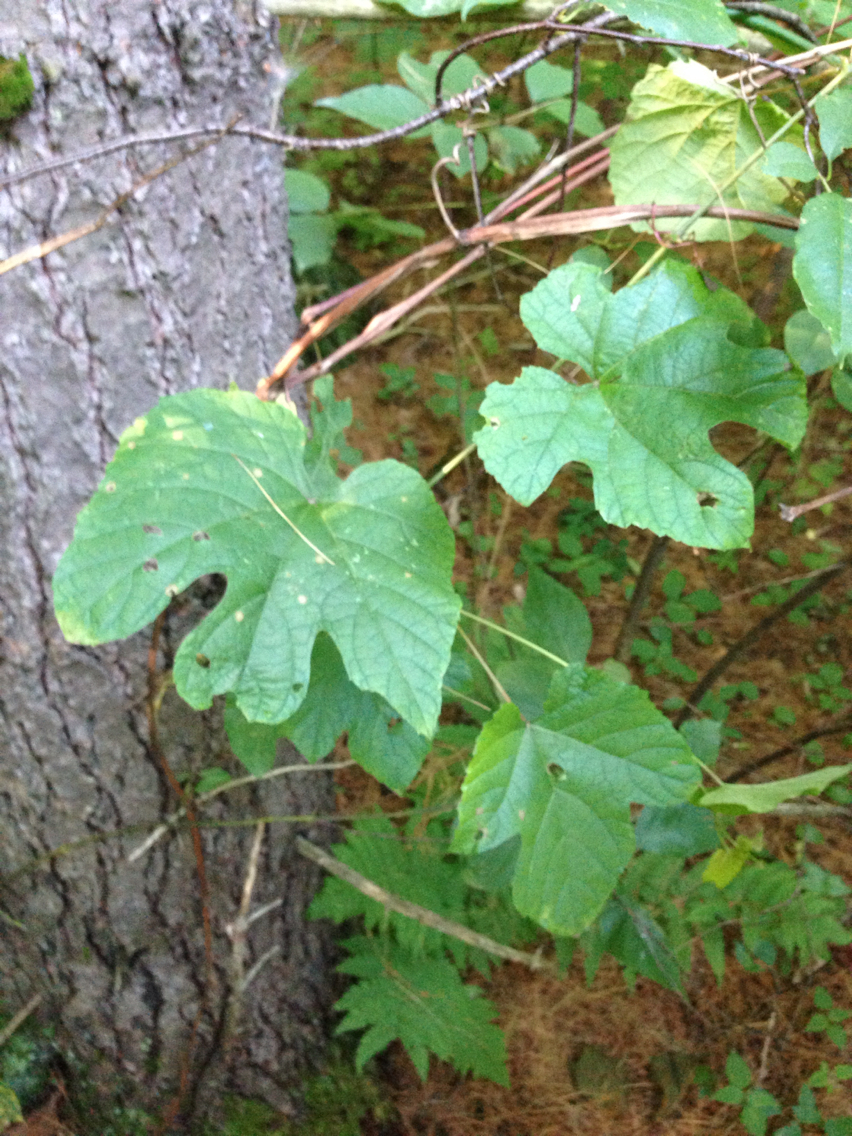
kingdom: Plantae
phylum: Tracheophyta
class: Magnoliopsida
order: Vitales
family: Vitaceae
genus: Vitis
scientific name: Vitis
